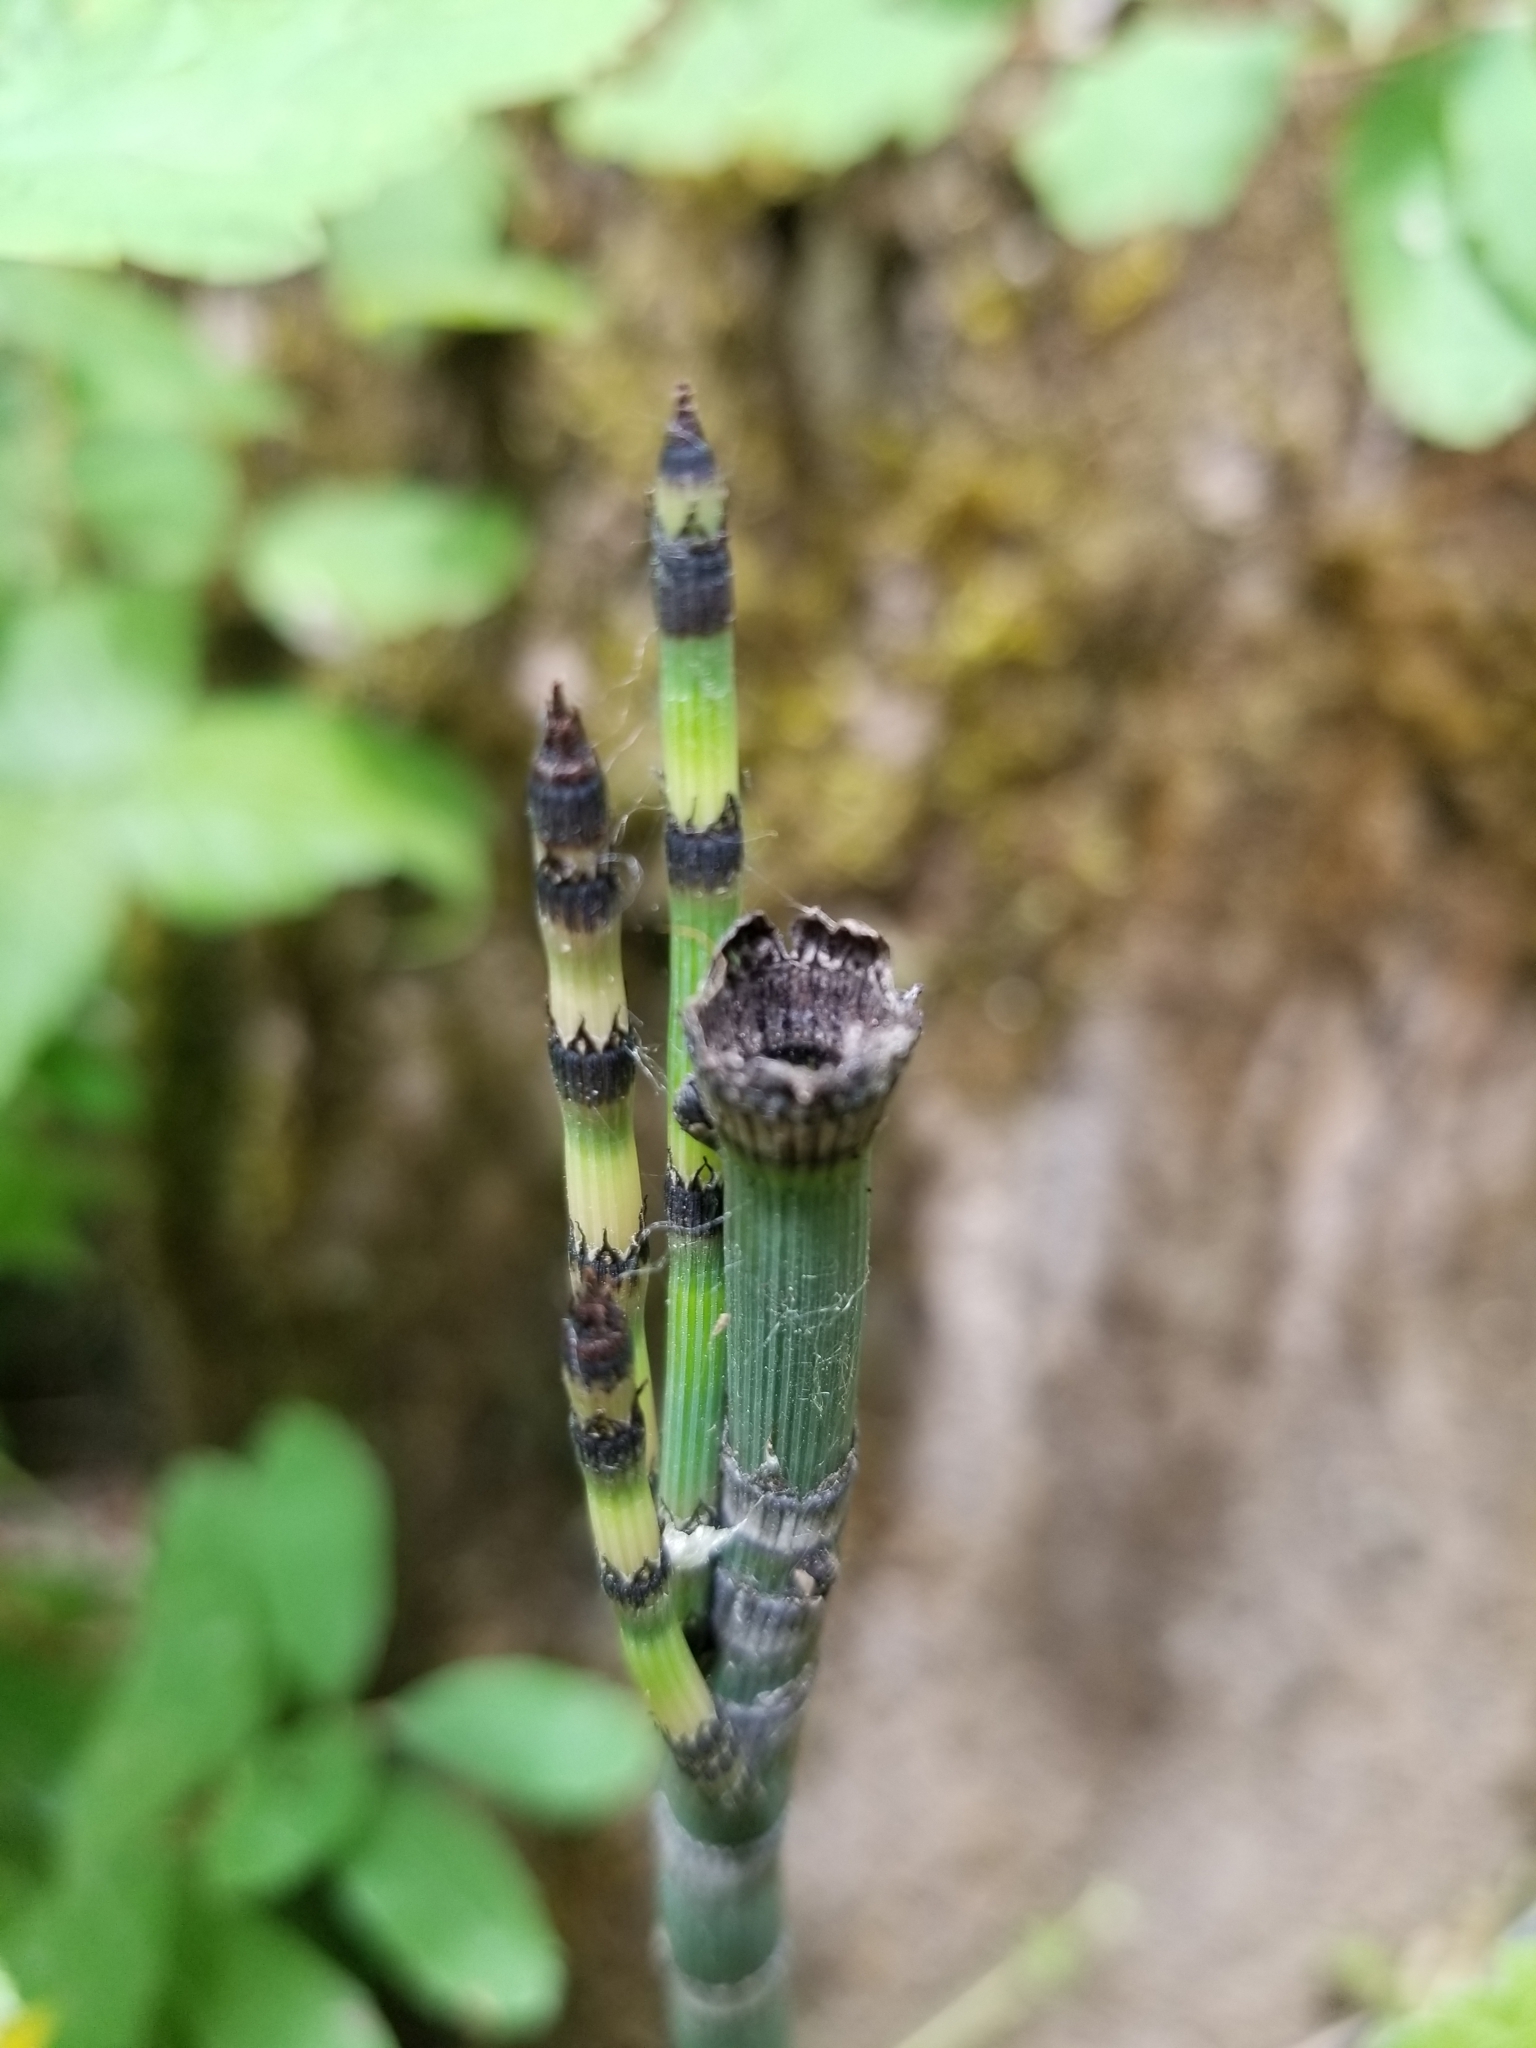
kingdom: Plantae
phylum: Tracheophyta
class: Polypodiopsida
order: Equisetales
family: Equisetaceae
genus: Equisetum
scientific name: Equisetum hyemale
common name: Rough horsetail
